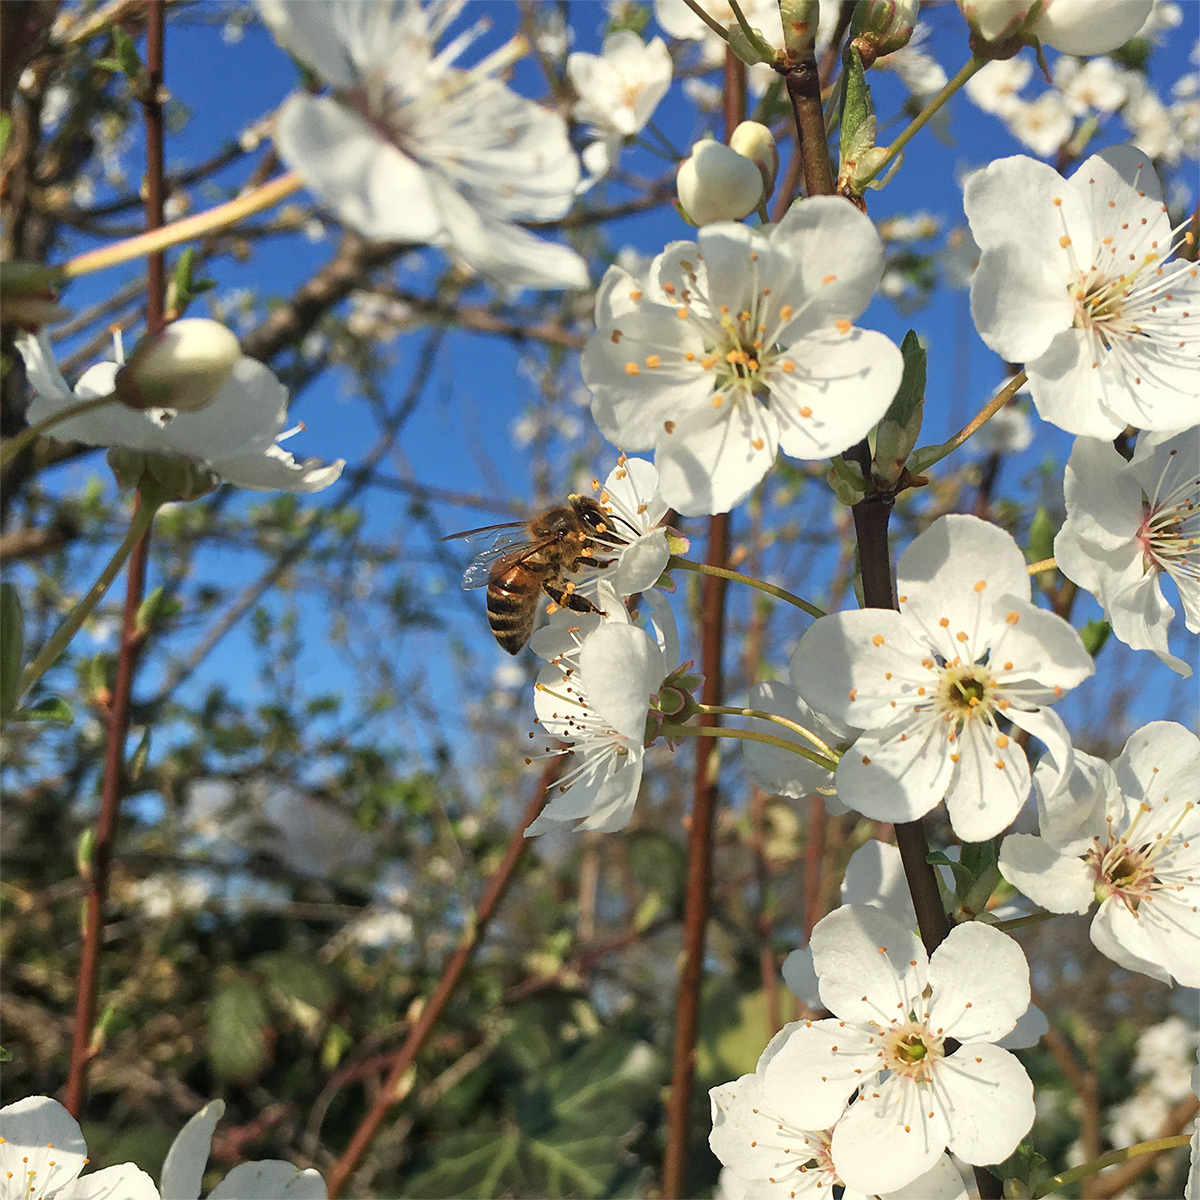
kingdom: Animalia
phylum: Arthropoda
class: Insecta
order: Hymenoptera
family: Apidae
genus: Apis
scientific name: Apis mellifera
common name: Honey bee
